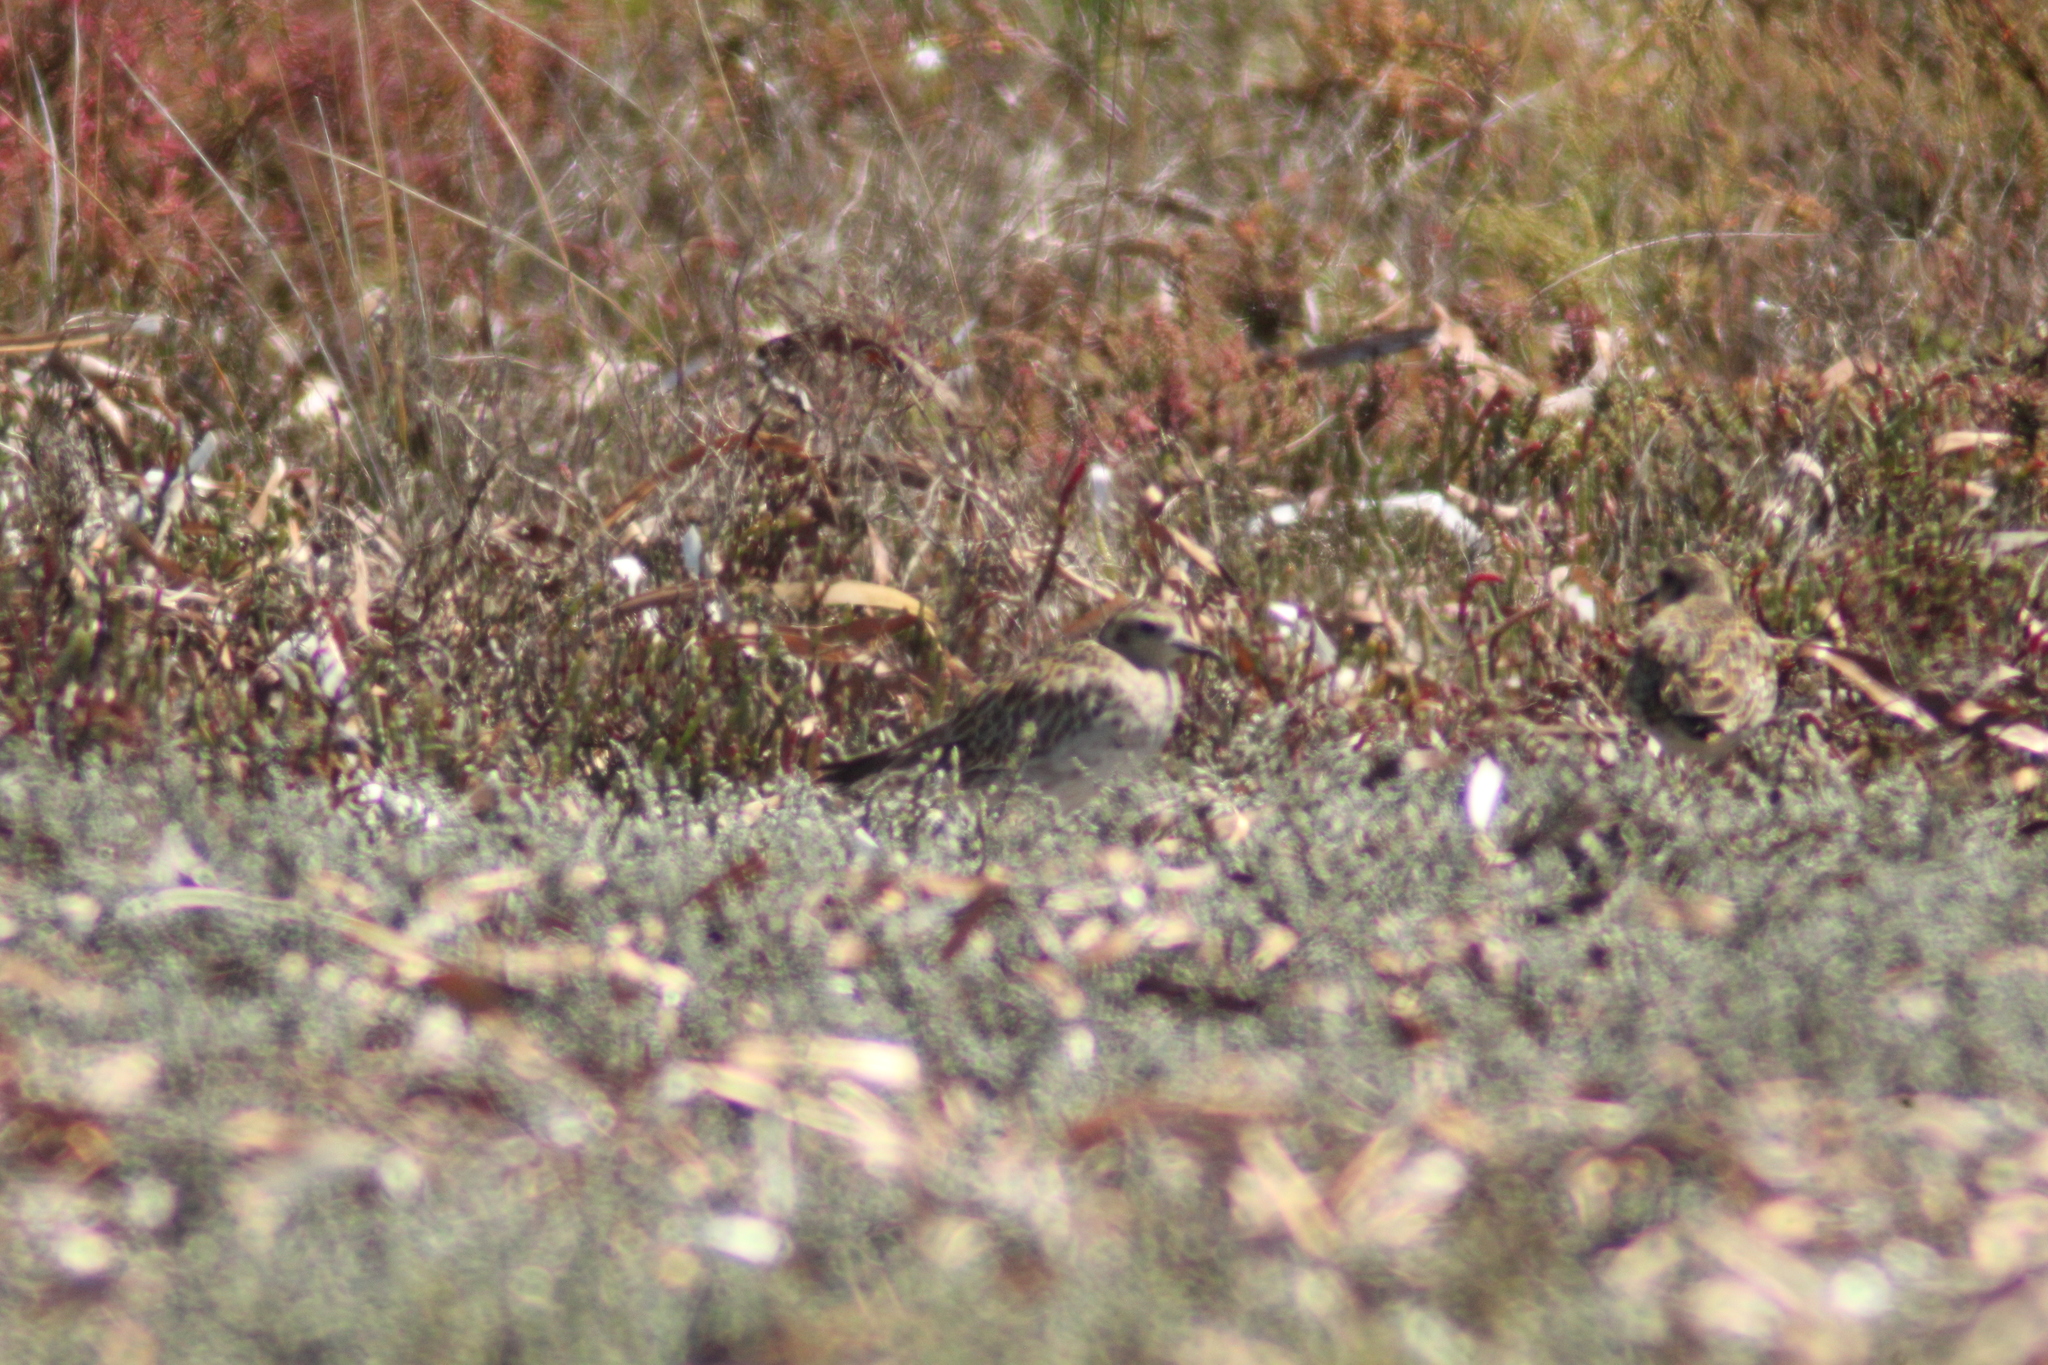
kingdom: Animalia
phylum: Chordata
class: Aves
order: Charadriiformes
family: Charadriidae
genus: Pluvialis
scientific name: Pluvialis fulva
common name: Pacific golden plover
